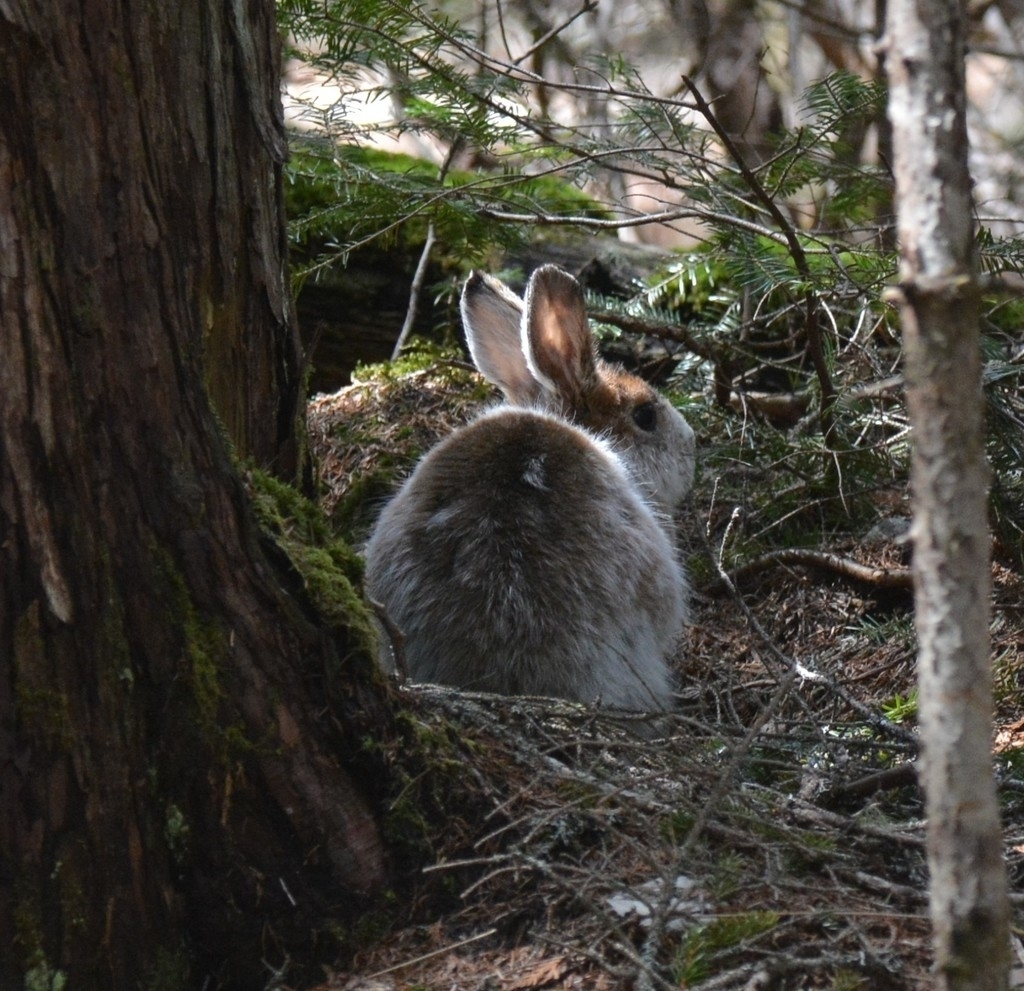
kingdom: Animalia
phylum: Chordata
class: Mammalia
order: Lagomorpha
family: Leporidae
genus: Lepus
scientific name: Lepus americanus
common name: Snowshoe hare
